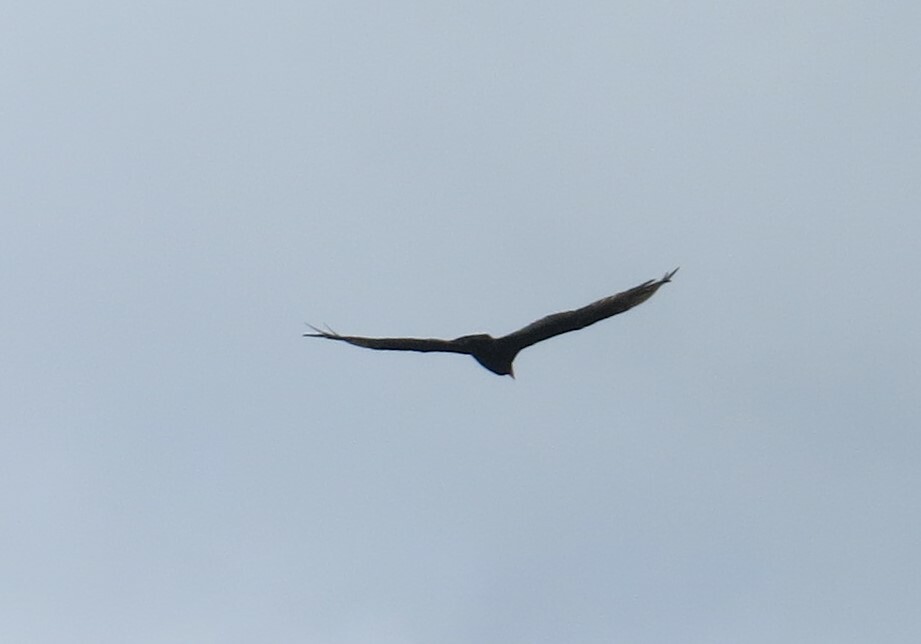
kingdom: Animalia
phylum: Chordata
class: Aves
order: Accipitriformes
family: Cathartidae
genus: Cathartes
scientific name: Cathartes aura
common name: Turkey vulture
